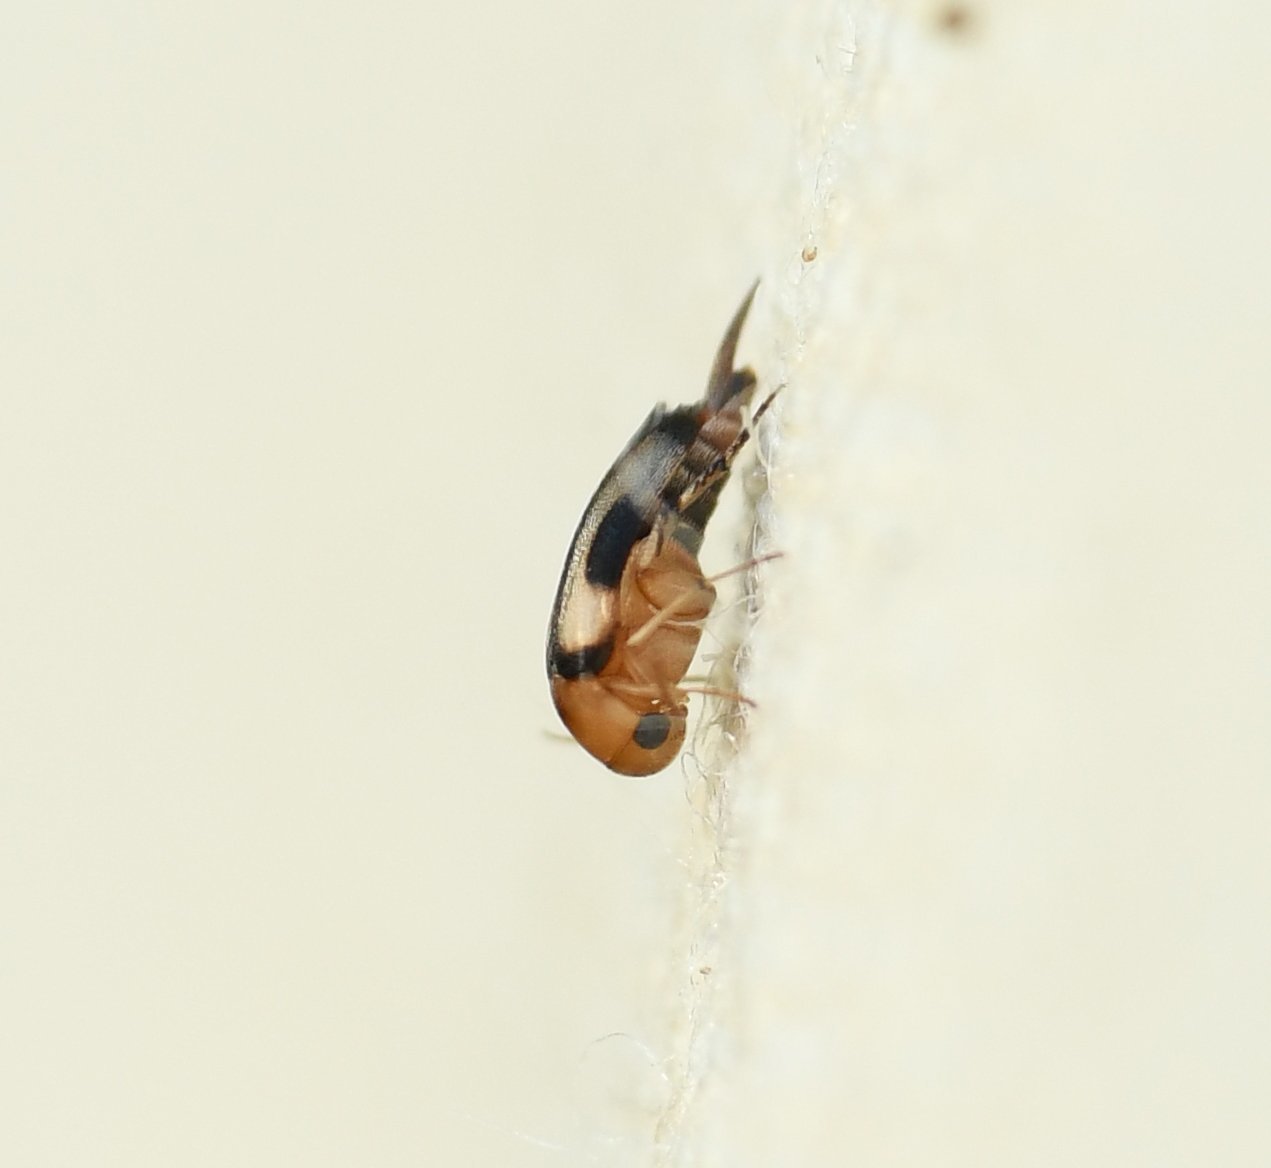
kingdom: Animalia
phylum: Arthropoda
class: Insecta
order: Coleoptera
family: Mordellidae
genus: Mordellina
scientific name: Mordellina andreae
